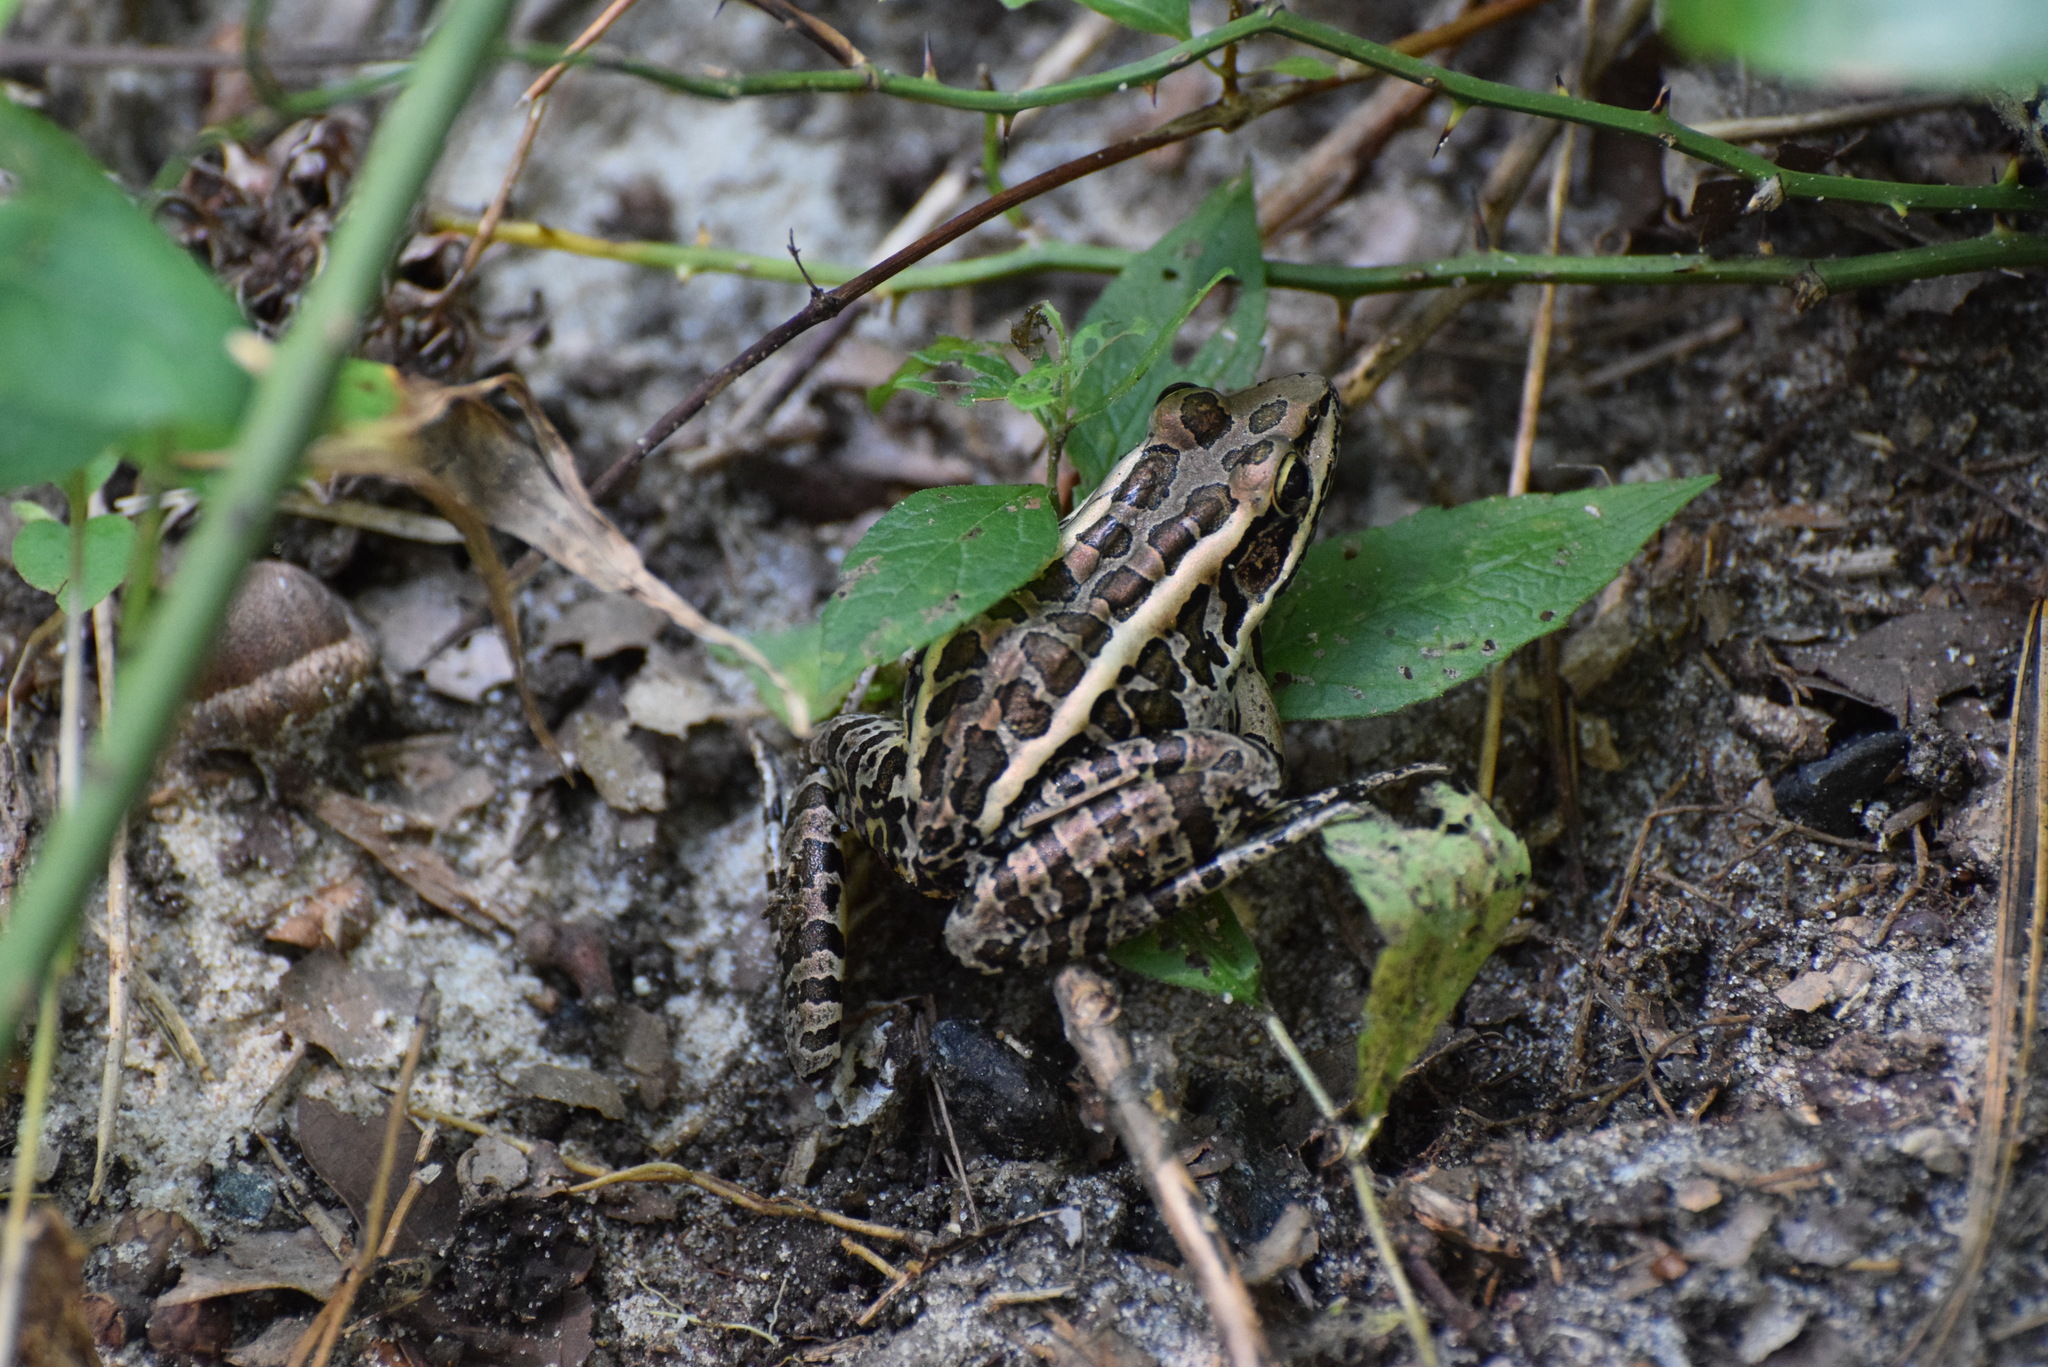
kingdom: Animalia
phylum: Chordata
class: Amphibia
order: Anura
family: Ranidae
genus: Lithobates
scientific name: Lithobates palustris
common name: Pickerel frog
